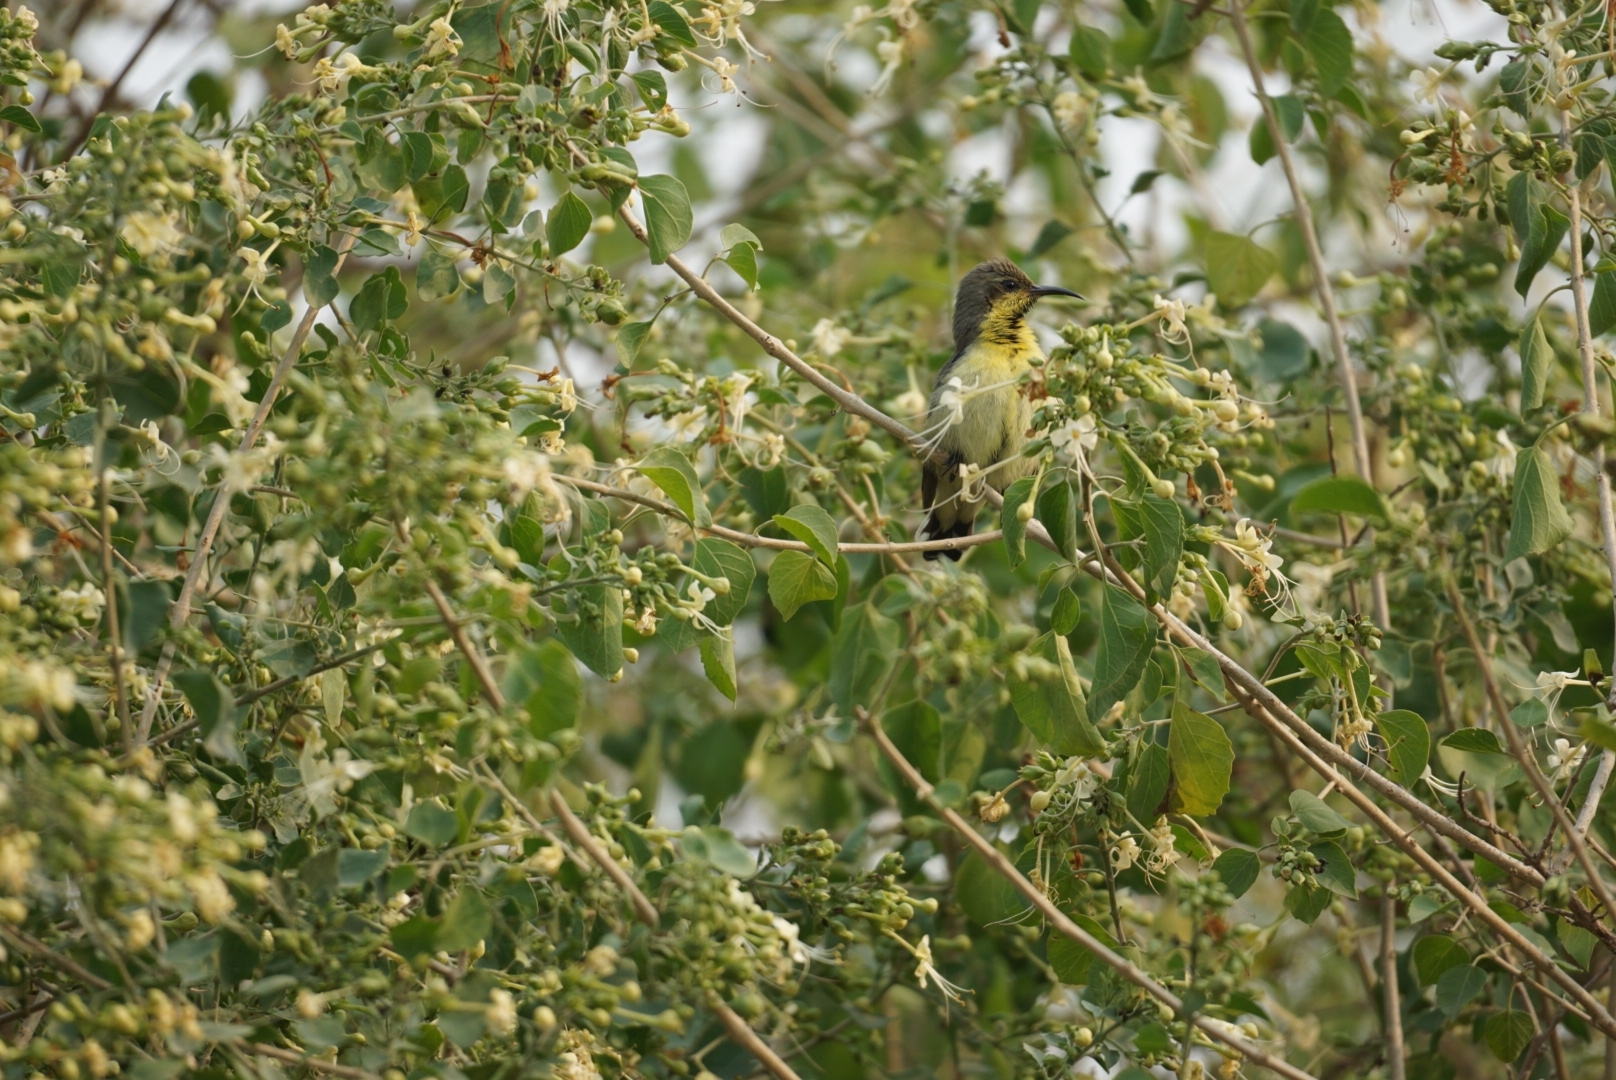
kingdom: Animalia
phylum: Chordata
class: Aves
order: Passeriformes
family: Nectariniidae
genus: Cinnyris
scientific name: Cinnyris asiaticus
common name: Purple sunbird
